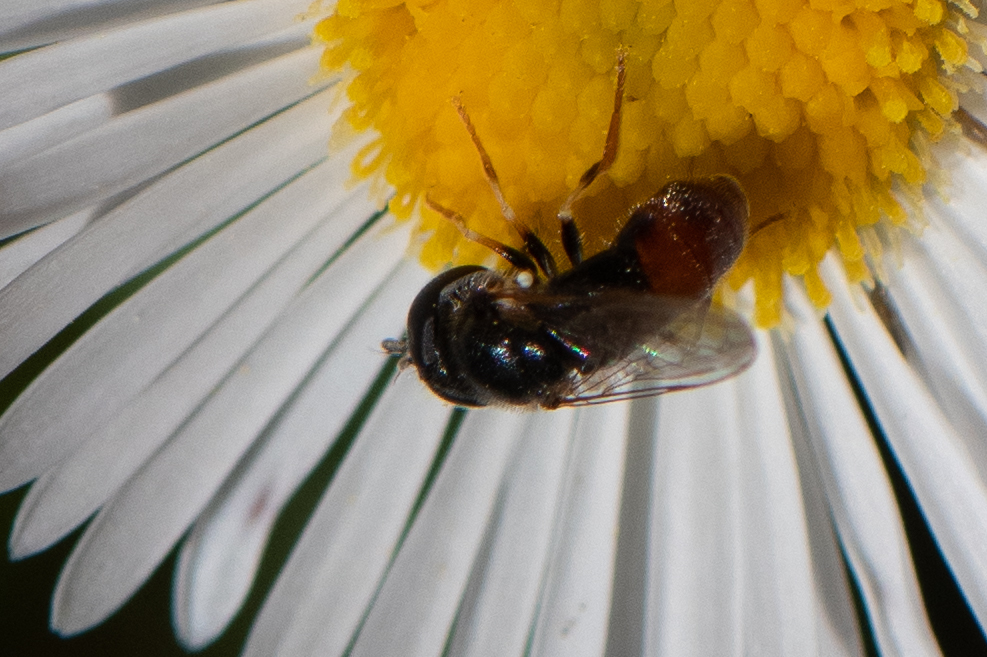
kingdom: Animalia
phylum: Arthropoda
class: Insecta
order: Diptera
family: Syrphidae
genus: Paragus
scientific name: Paragus haemorrhous
